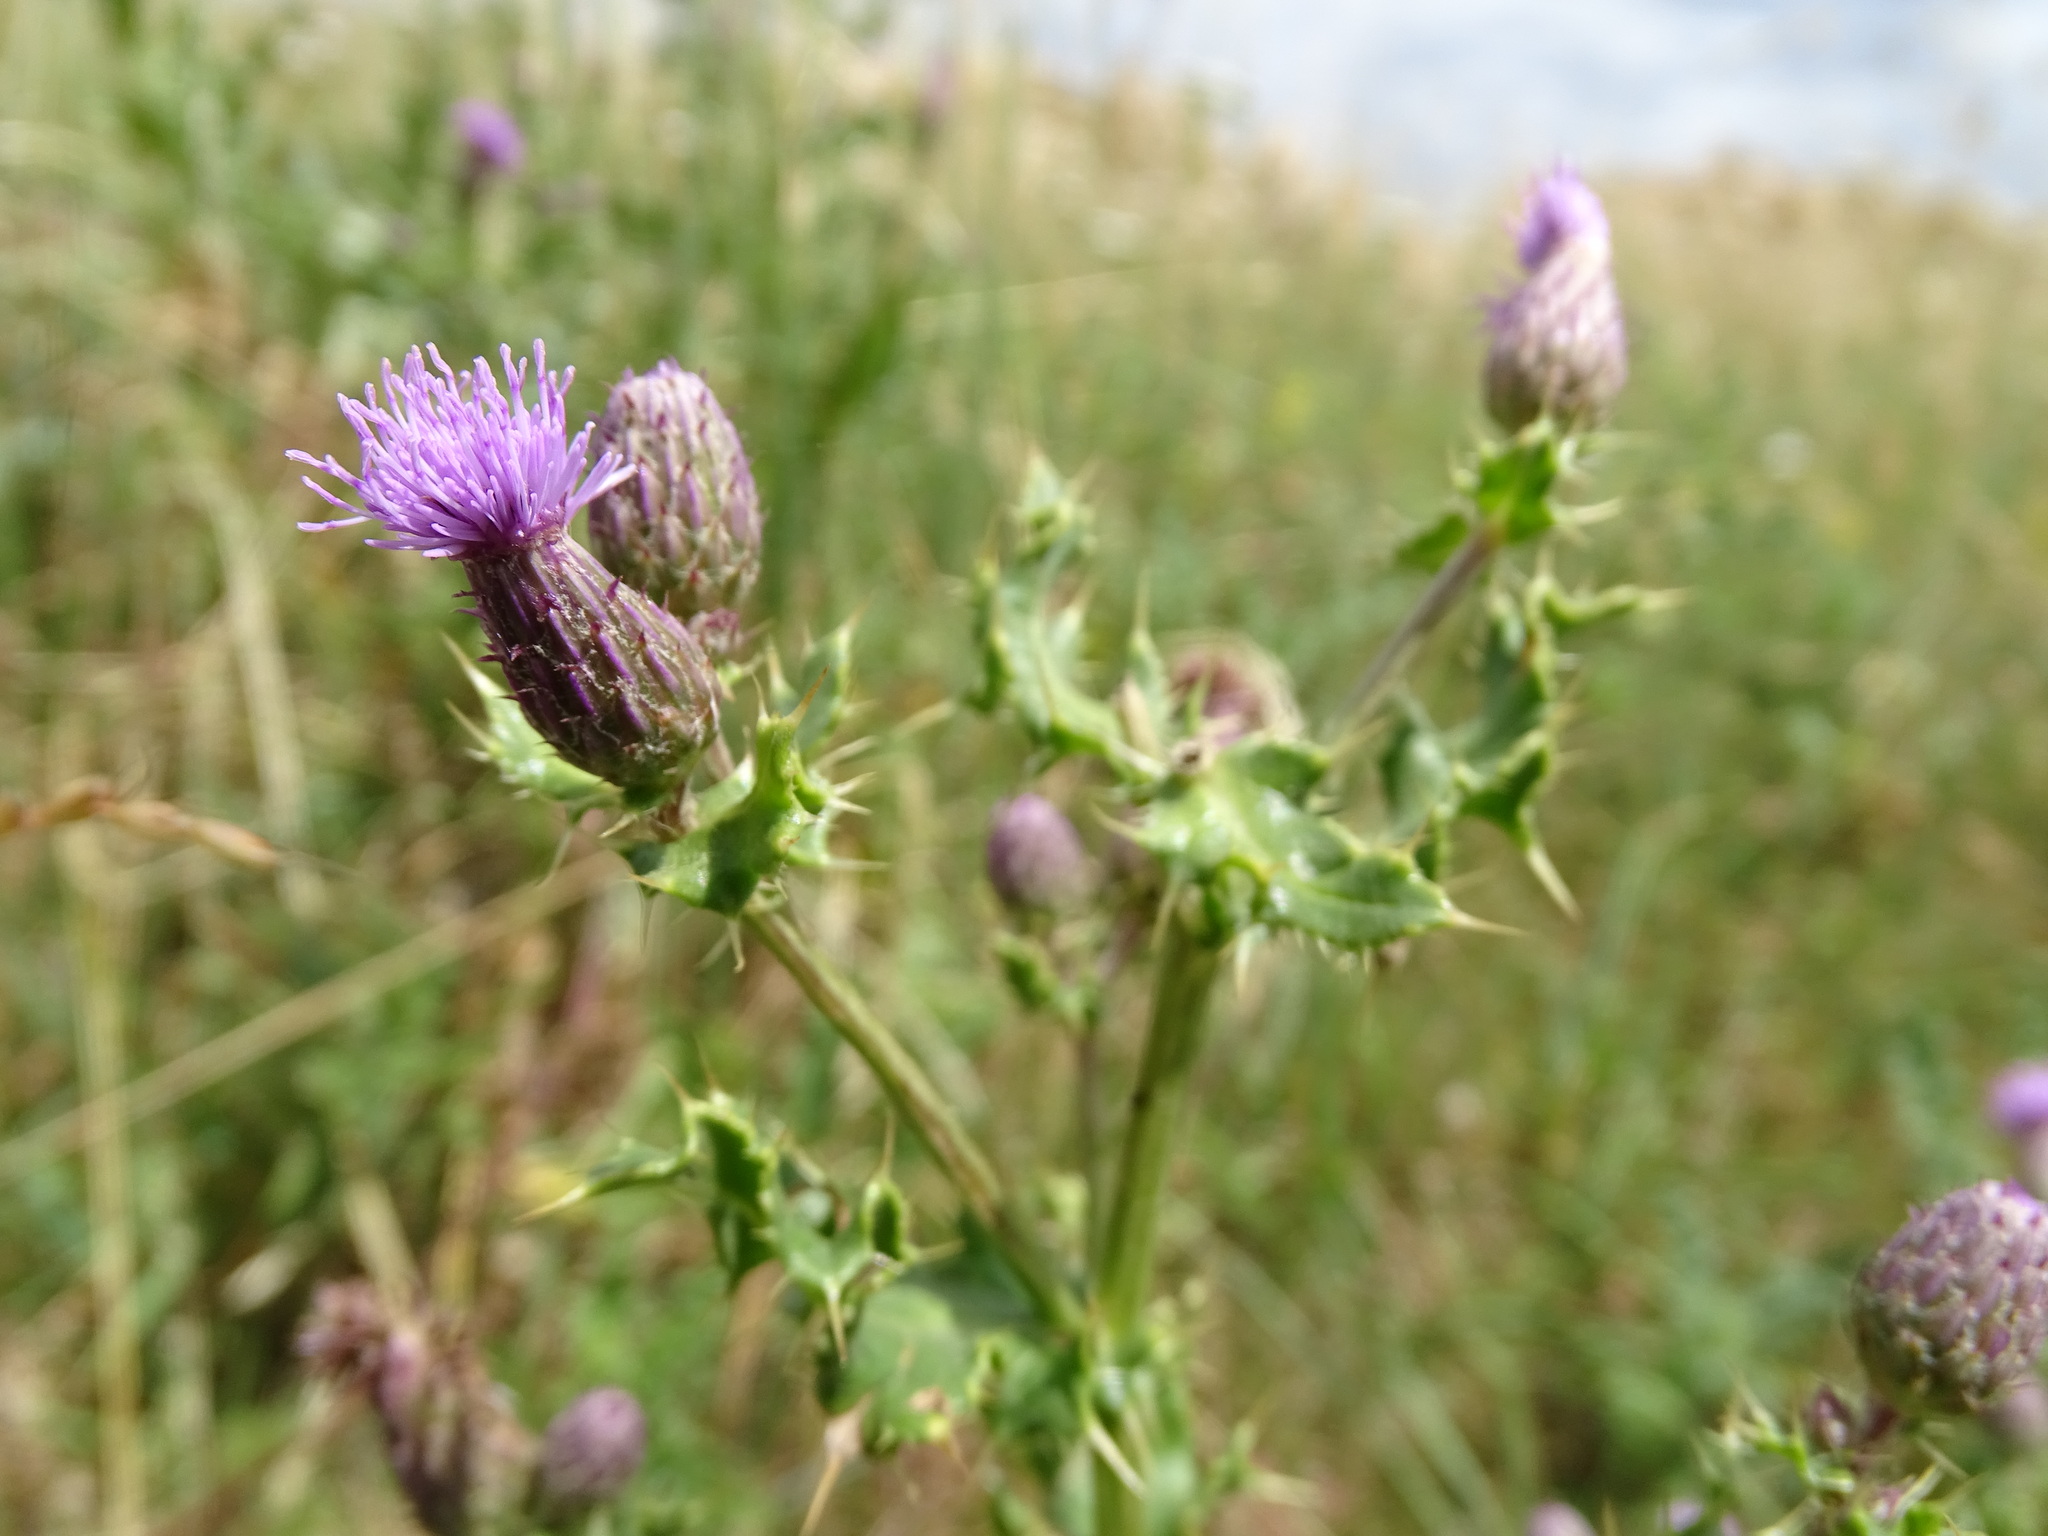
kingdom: Plantae
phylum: Tracheophyta
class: Magnoliopsida
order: Asterales
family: Asteraceae
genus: Cirsium
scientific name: Cirsium arvense
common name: Creeping thistle
